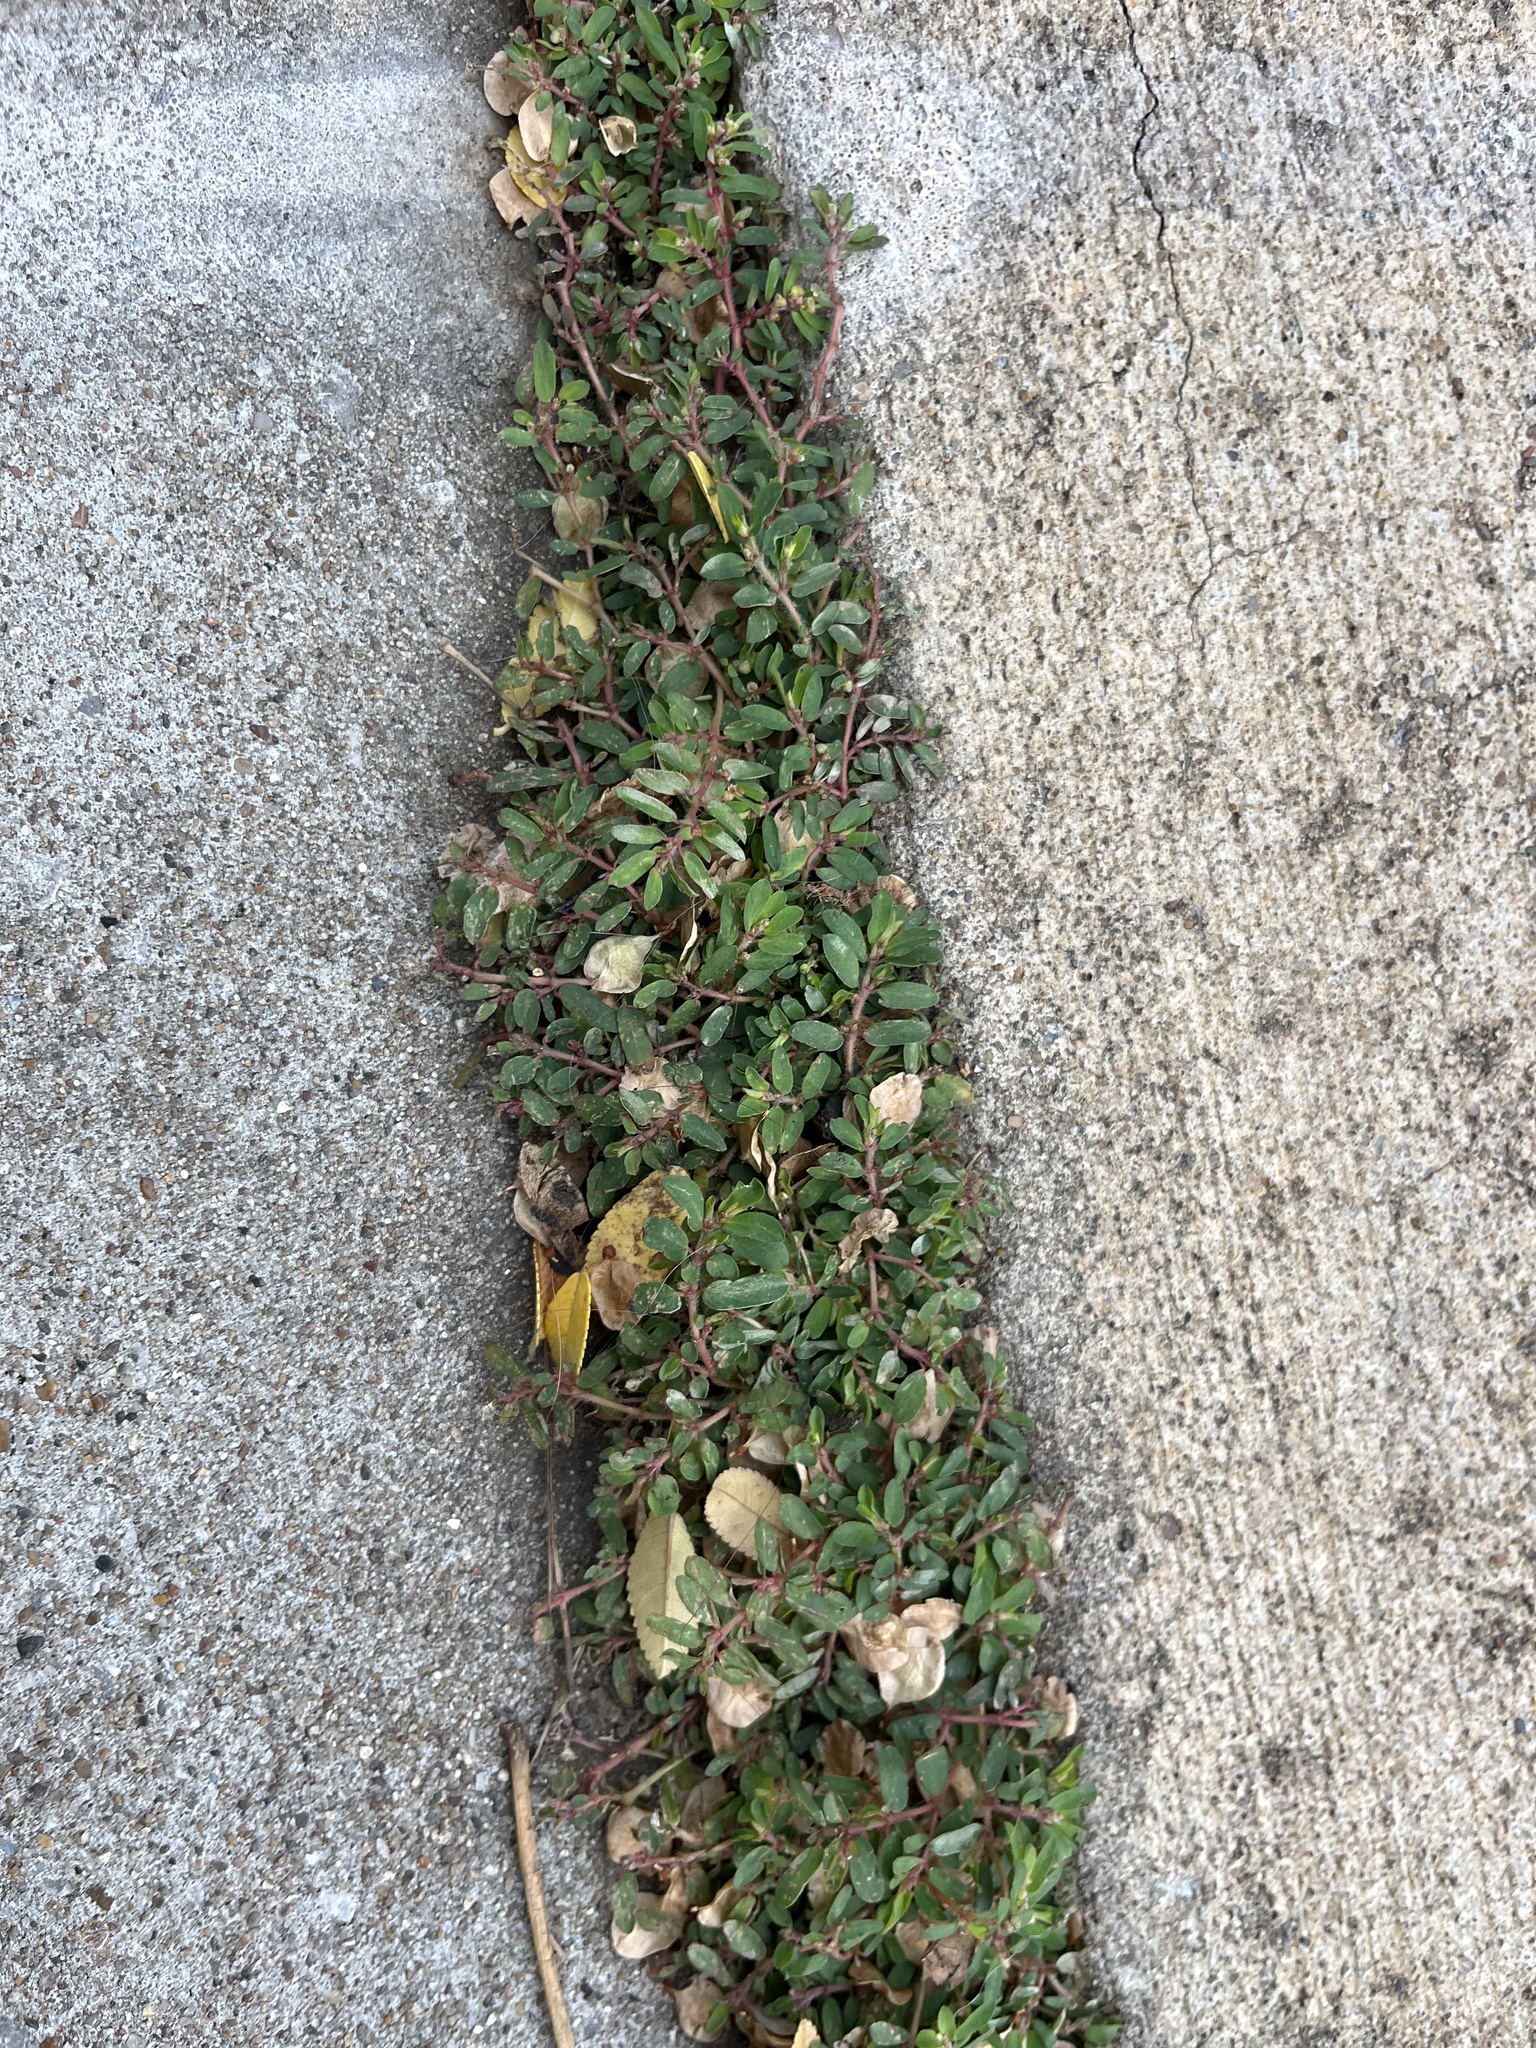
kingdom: Plantae
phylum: Tracheophyta
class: Magnoliopsida
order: Malpighiales
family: Euphorbiaceae
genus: Euphorbia
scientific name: Euphorbia maculata
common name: Spotted spurge
